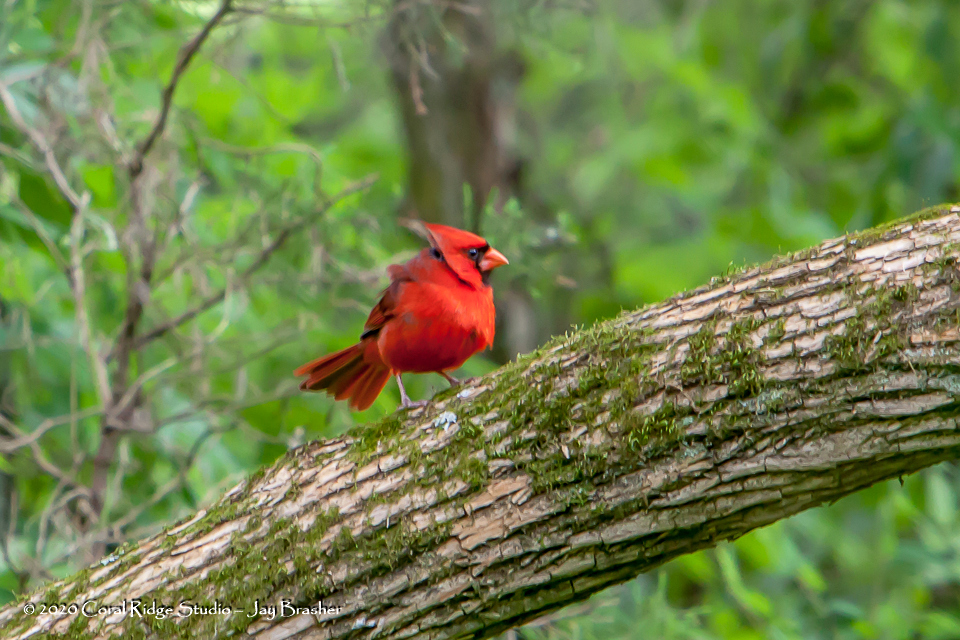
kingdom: Animalia
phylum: Chordata
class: Aves
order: Passeriformes
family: Cardinalidae
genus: Cardinalis
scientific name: Cardinalis cardinalis
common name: Northern cardinal
